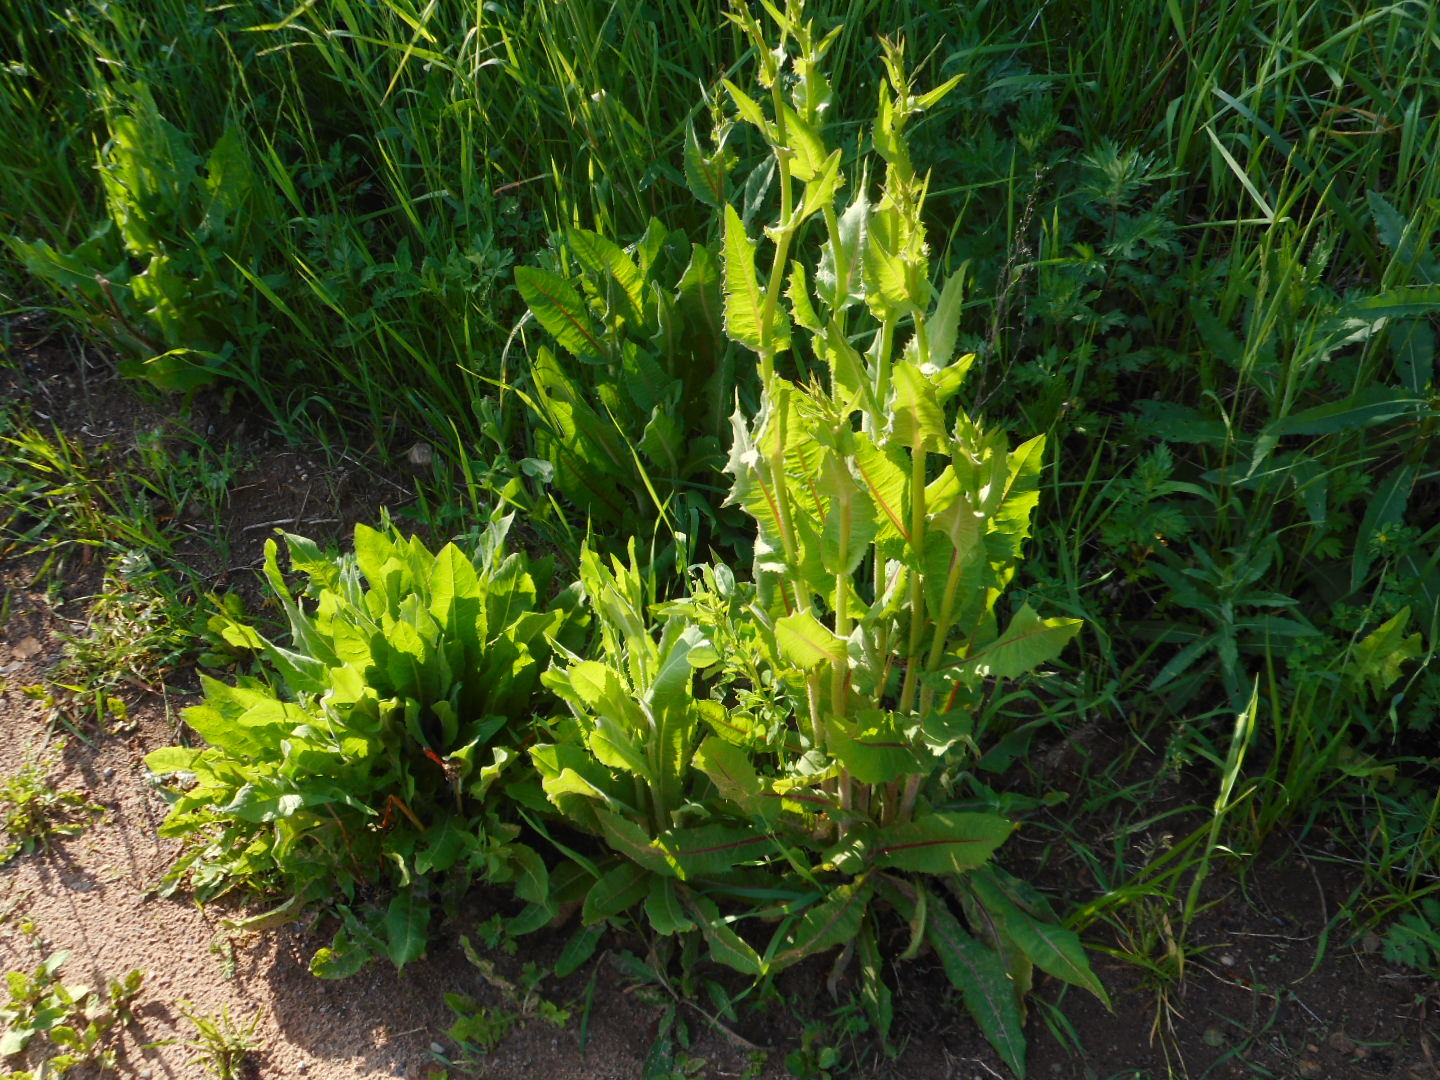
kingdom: Plantae
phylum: Tracheophyta
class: Magnoliopsida
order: Asterales
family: Asteraceae
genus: Cichorium
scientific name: Cichorium intybus
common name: Chicory
